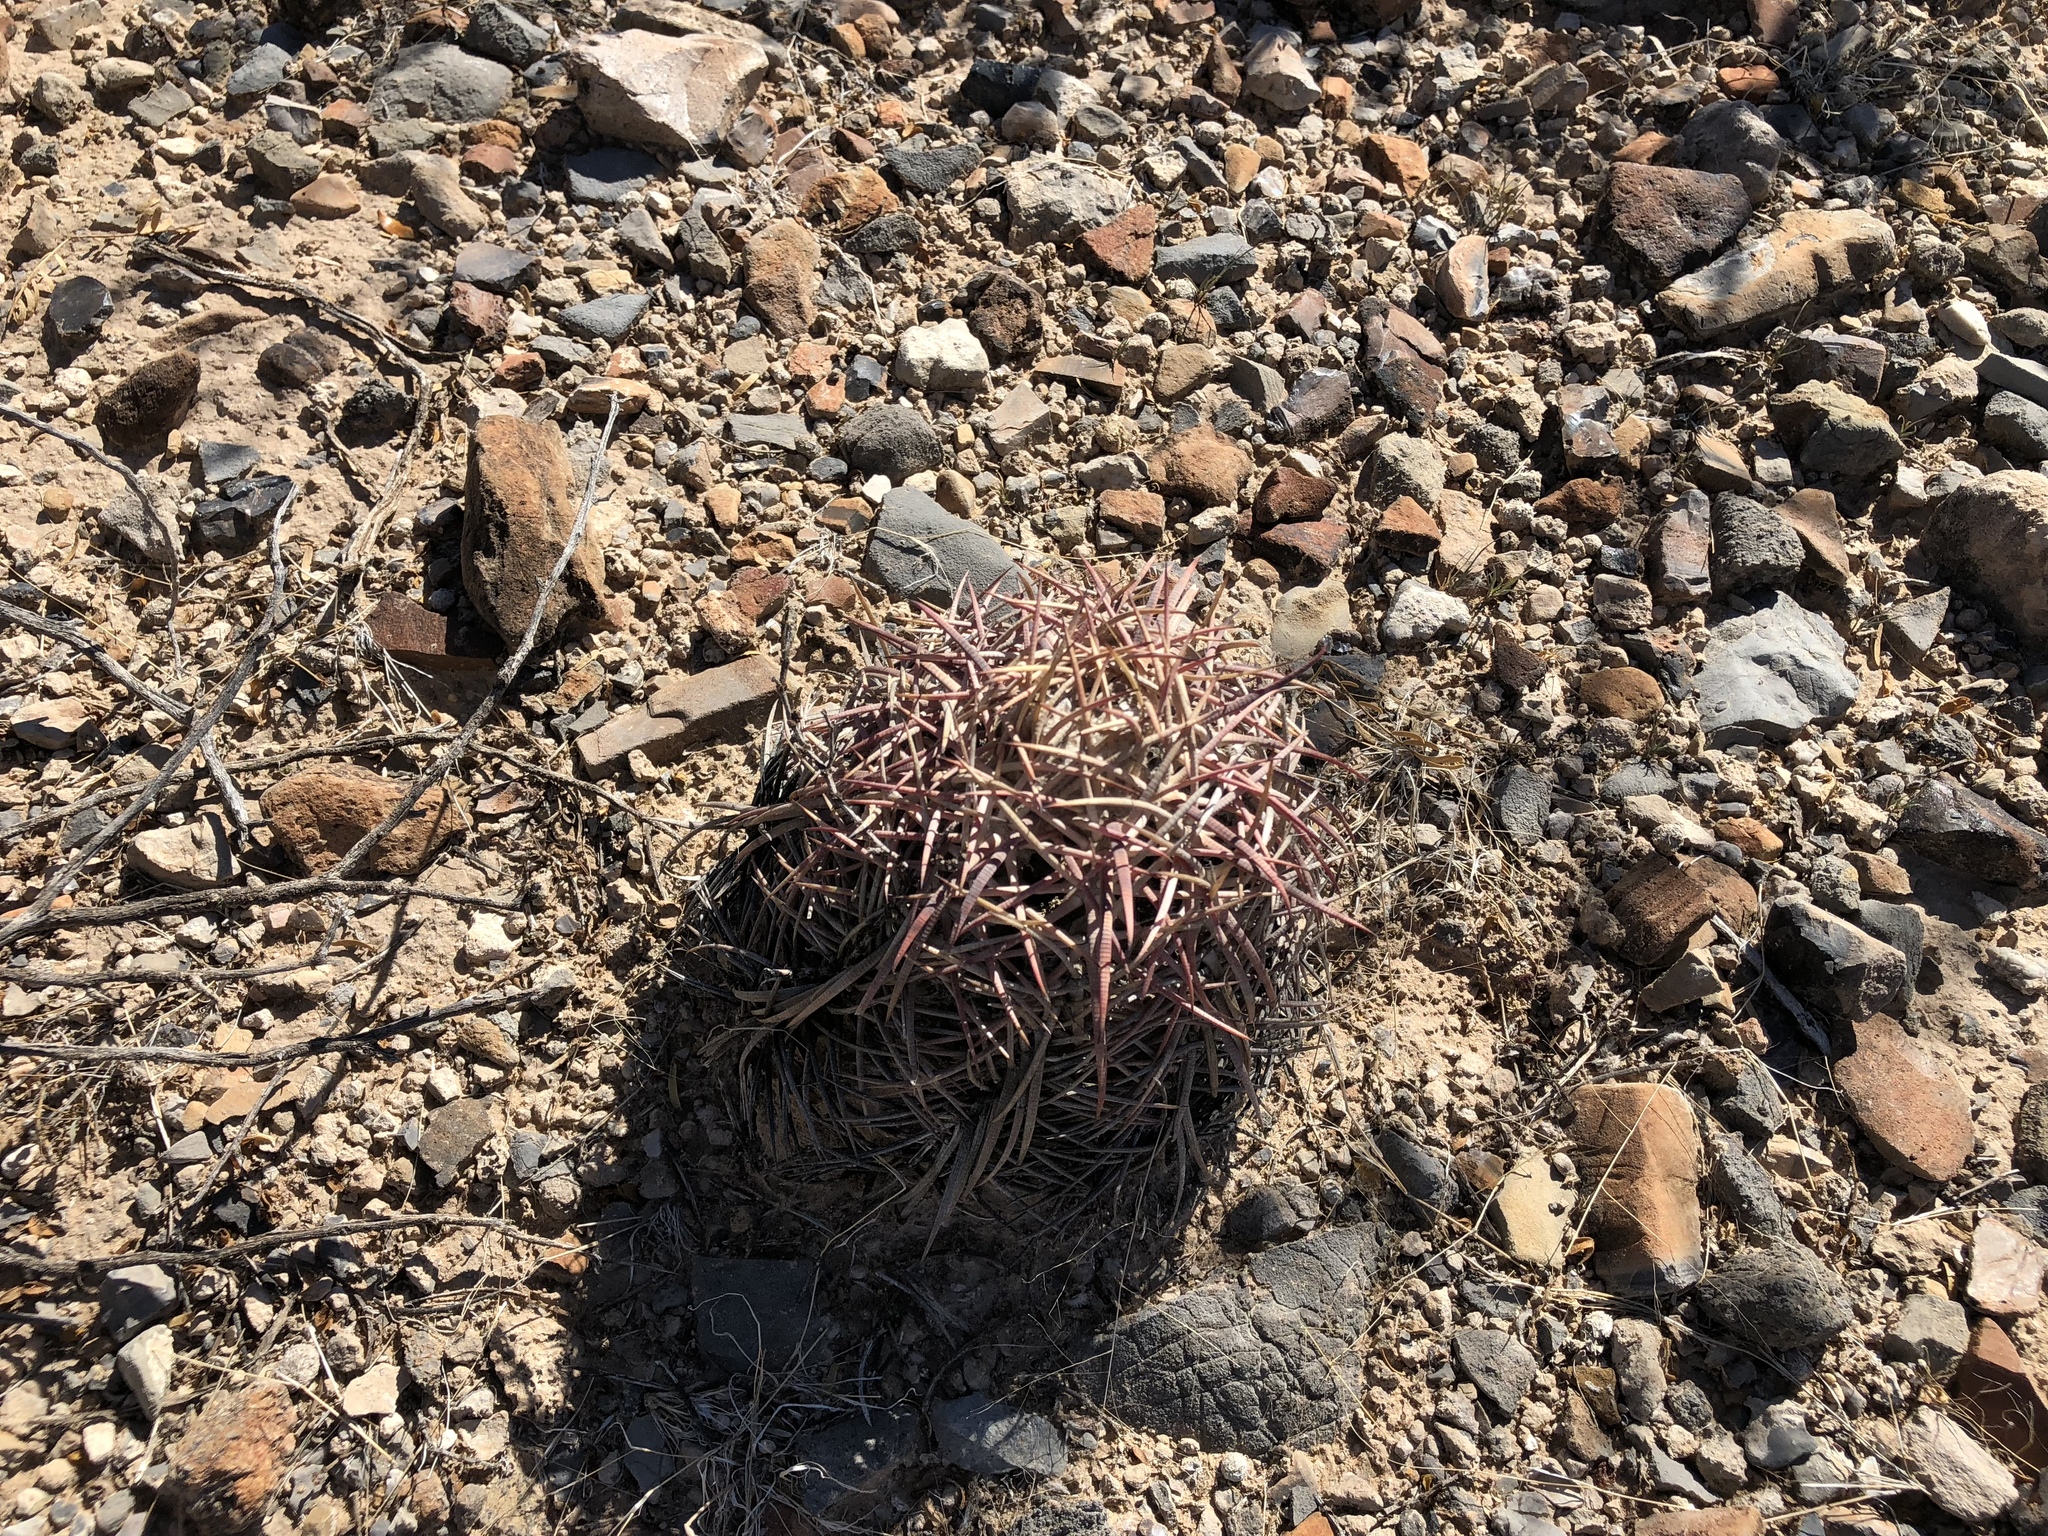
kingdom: Plantae
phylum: Tracheophyta
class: Magnoliopsida
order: Caryophyllales
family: Cactaceae
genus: Echinocactus
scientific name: Echinocactus horizonthalonius
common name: Devilshead
